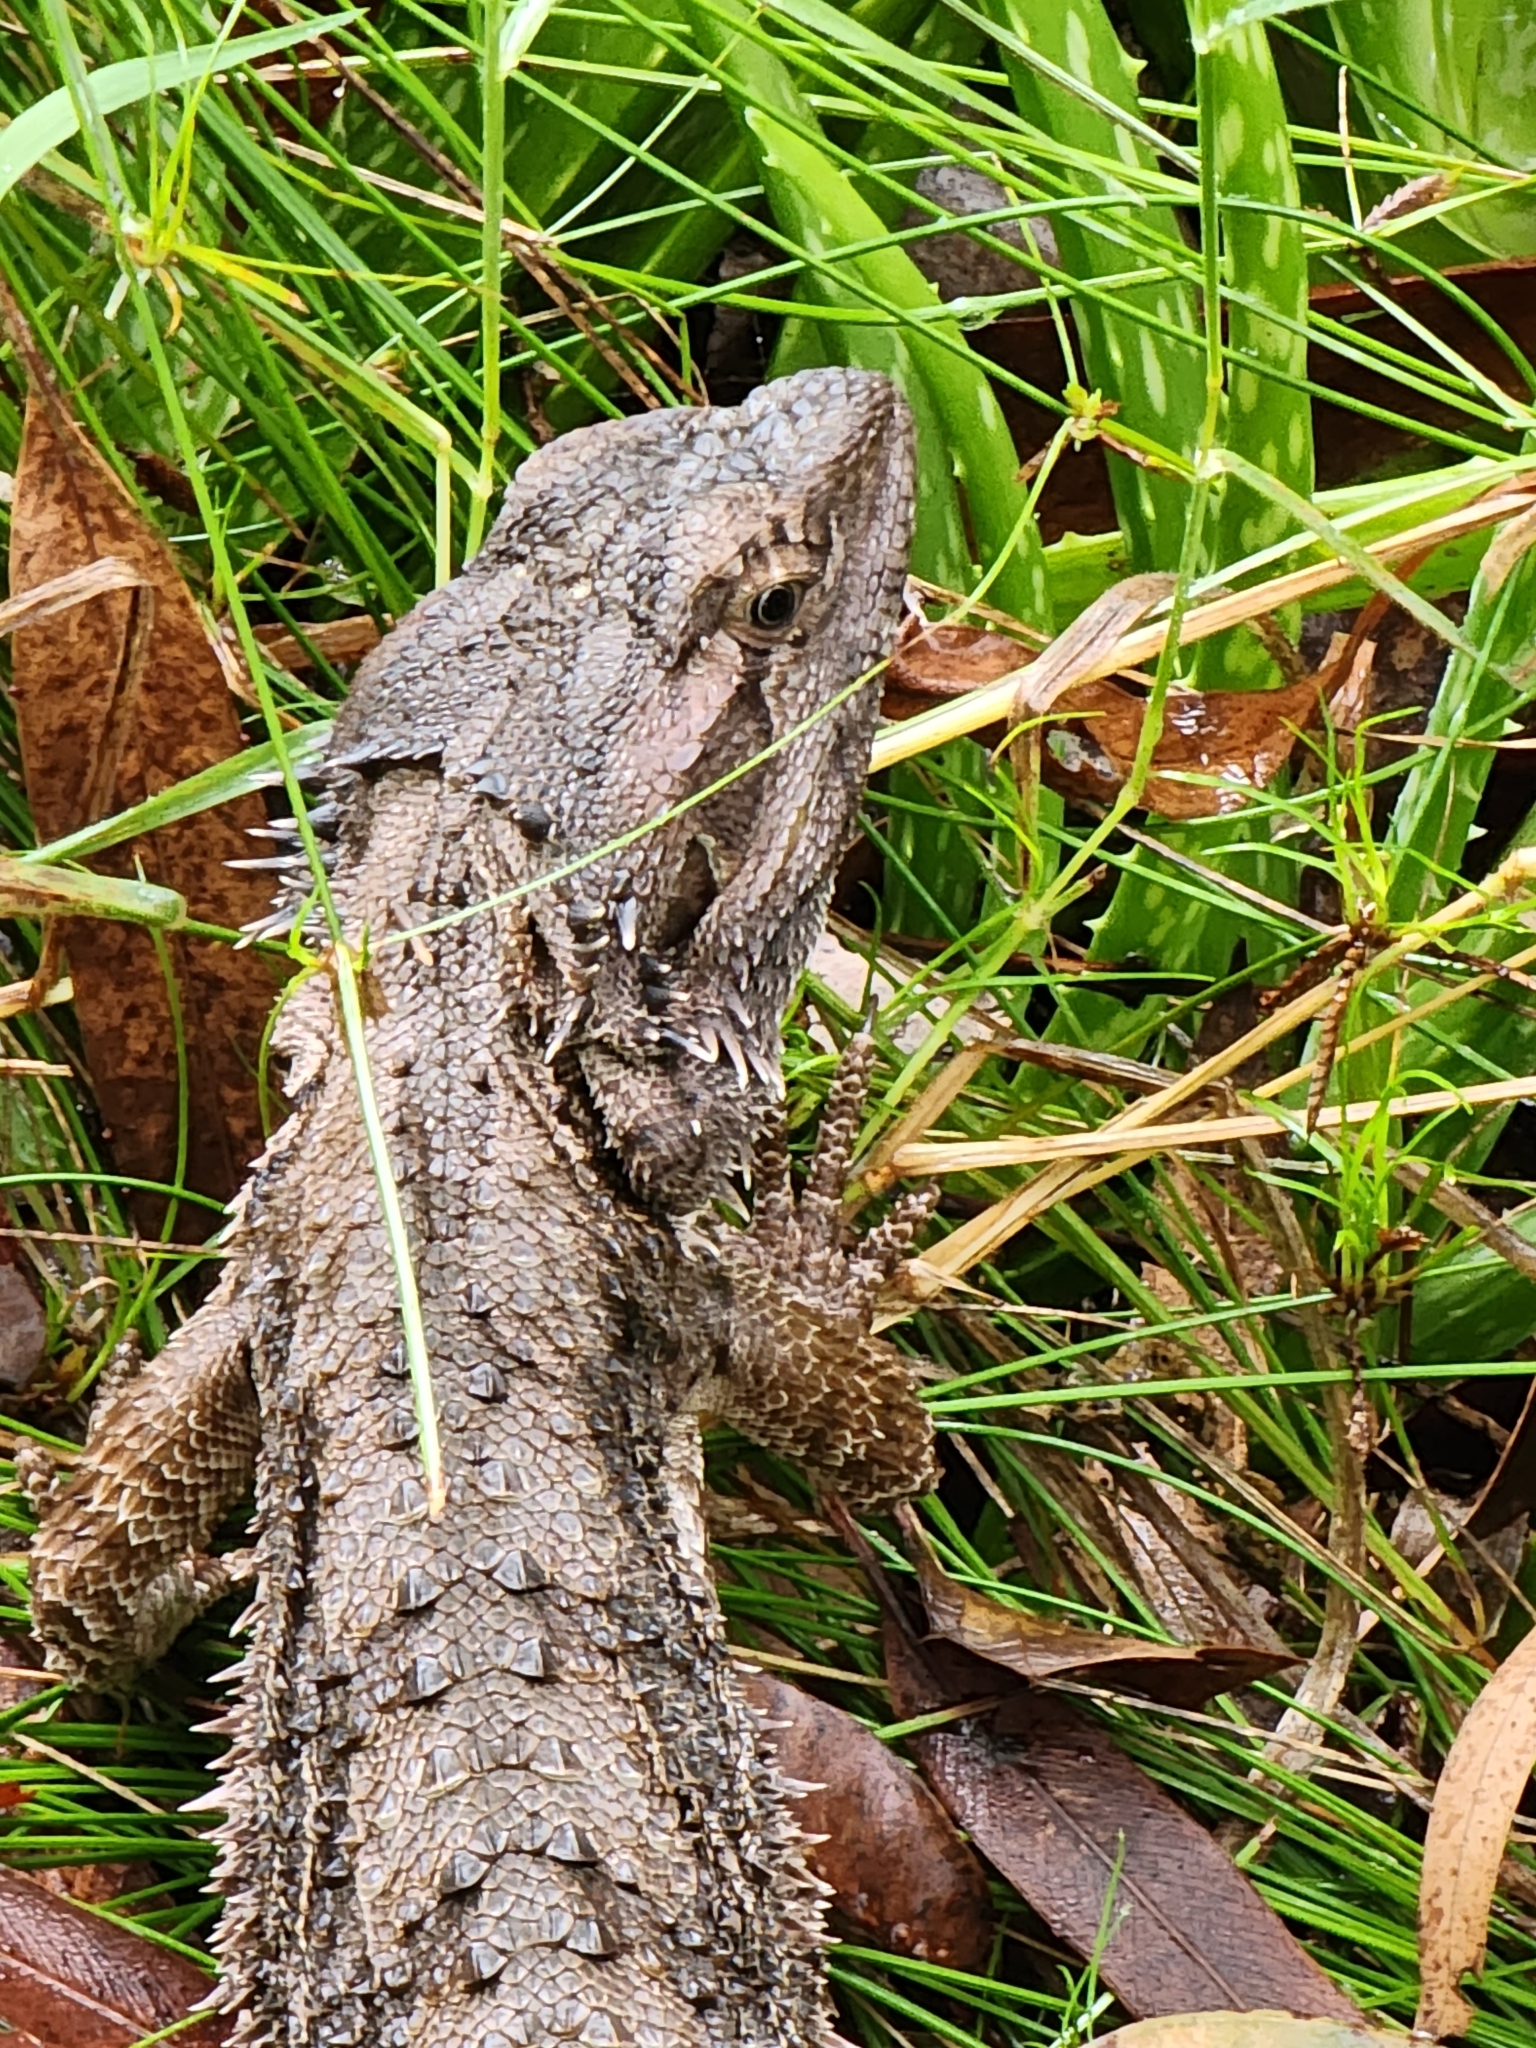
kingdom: Animalia
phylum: Chordata
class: Squamata
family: Agamidae
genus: Pogona
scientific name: Pogona barbata
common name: Bearded dragon
